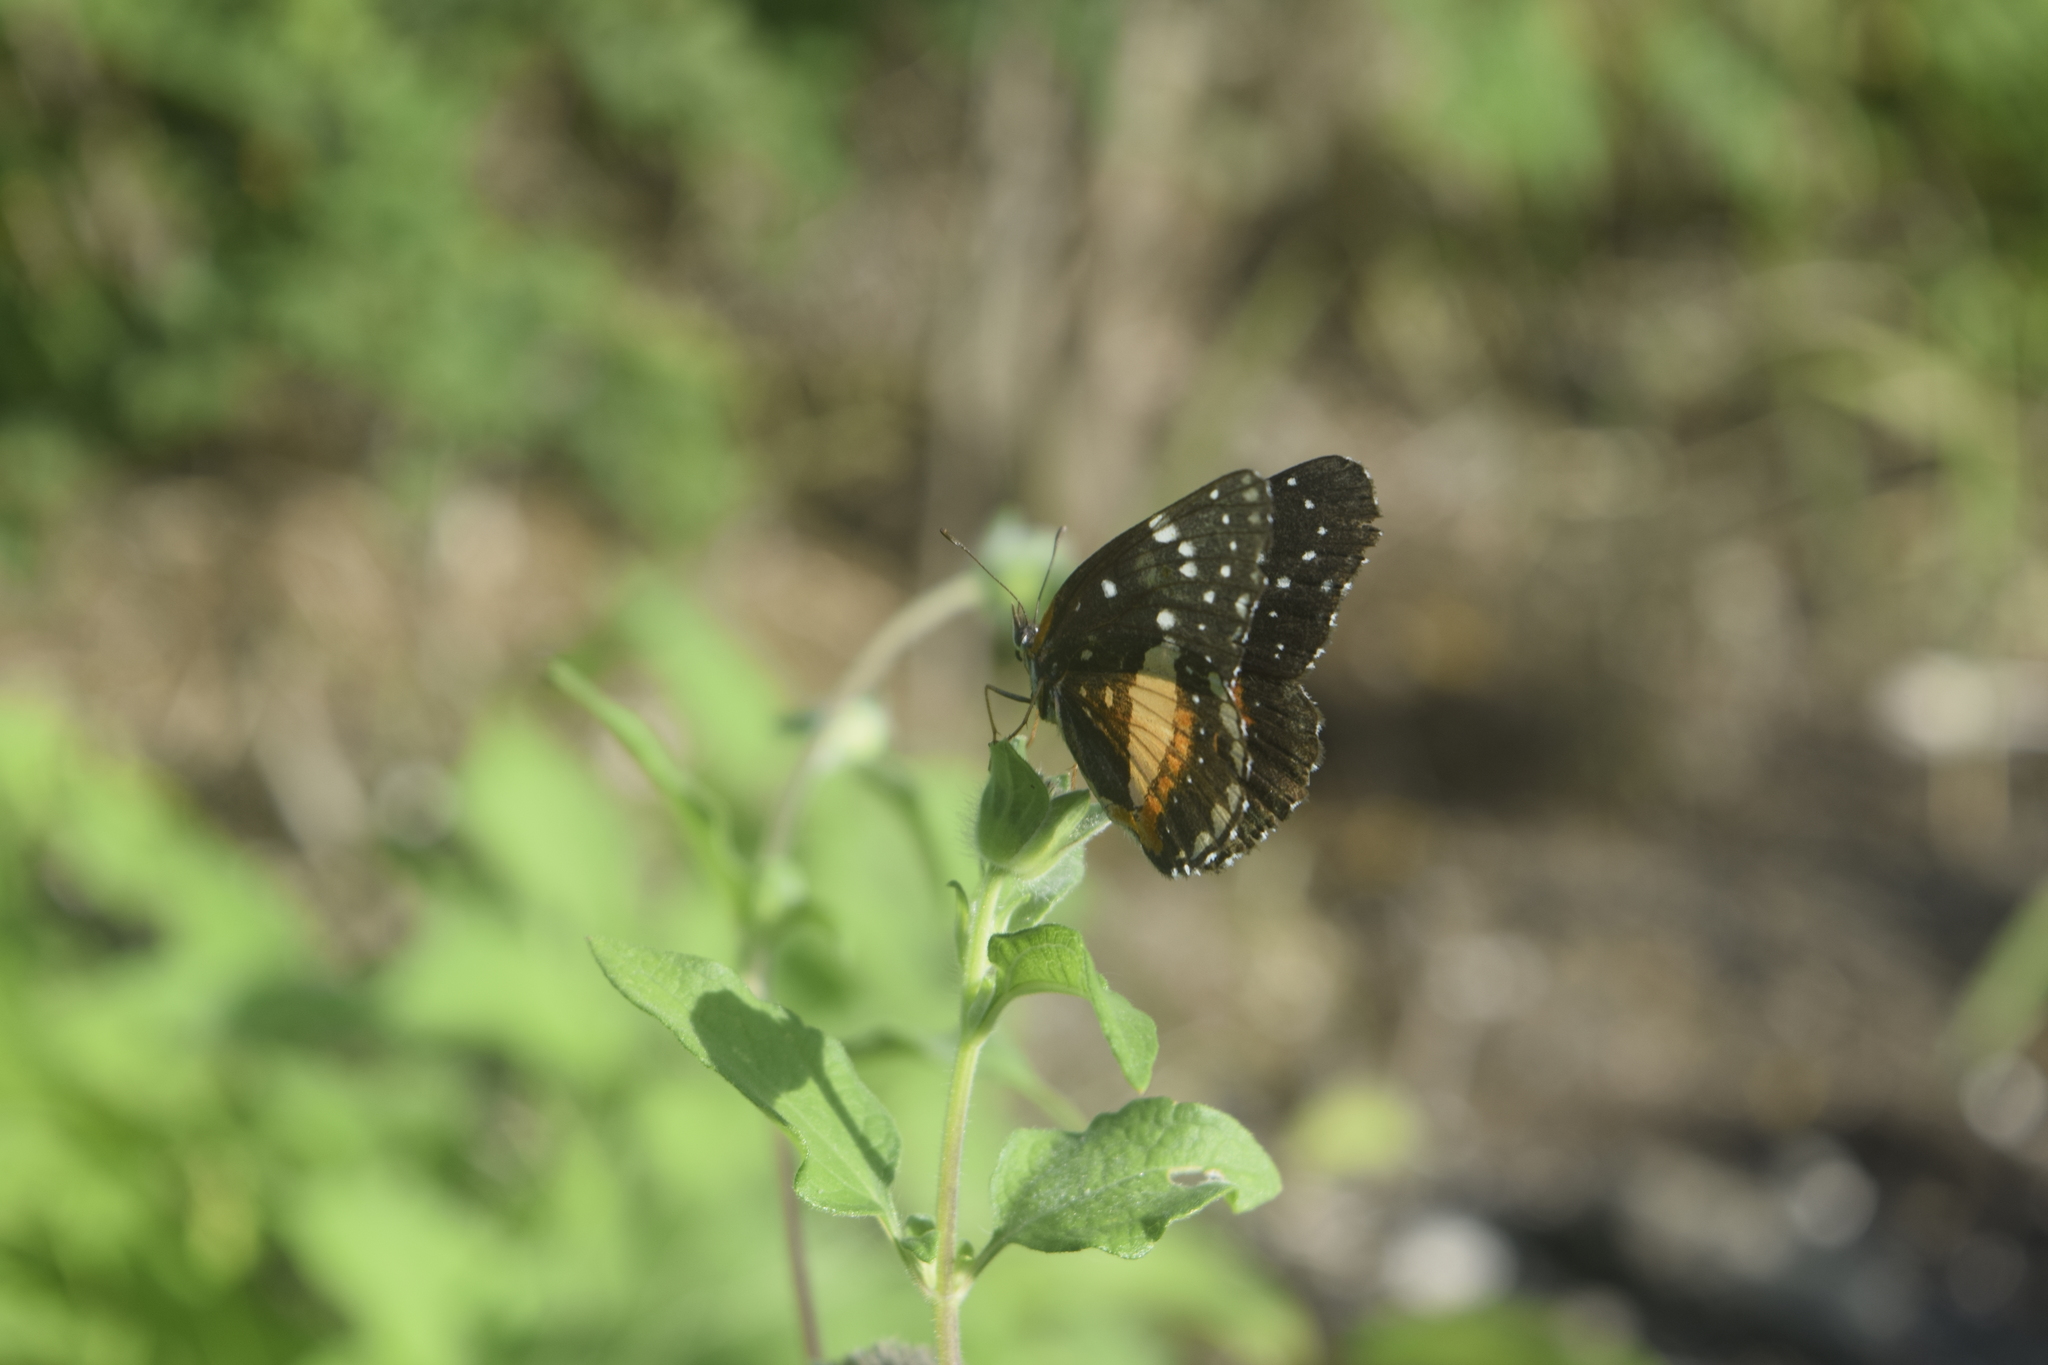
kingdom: Animalia
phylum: Arthropoda
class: Insecta
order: Lepidoptera
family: Nymphalidae
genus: Chlosyne
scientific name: Chlosyne lacinia
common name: Bordered patch
